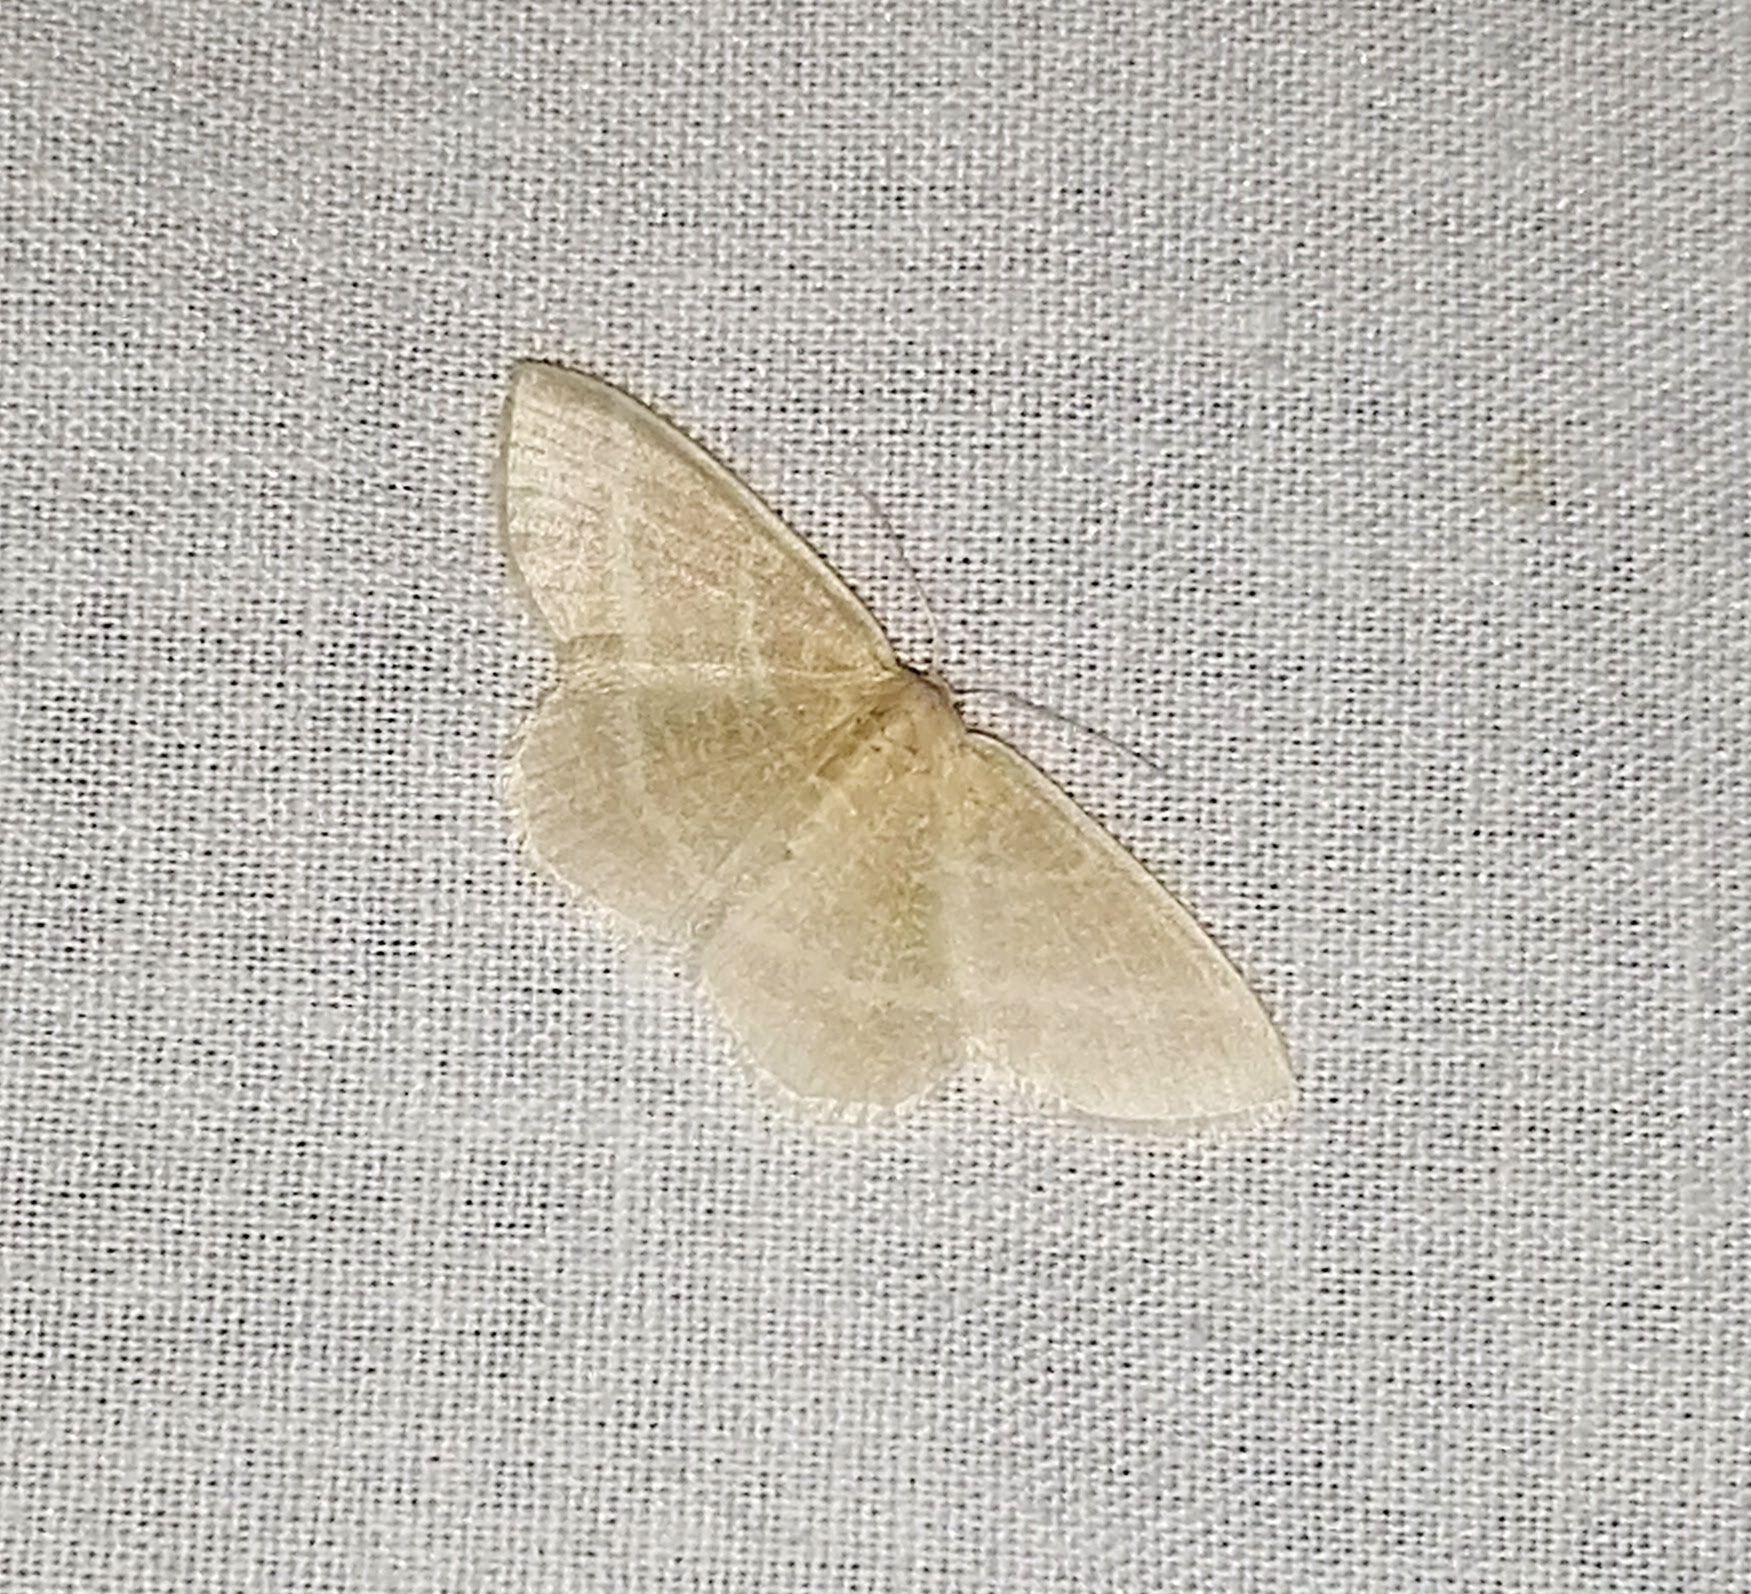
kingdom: Animalia
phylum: Arthropoda
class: Insecta
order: Lepidoptera
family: Geometridae
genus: Chlorochlamys
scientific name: Chlorochlamys chloroleucaria
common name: Blackberry looper
